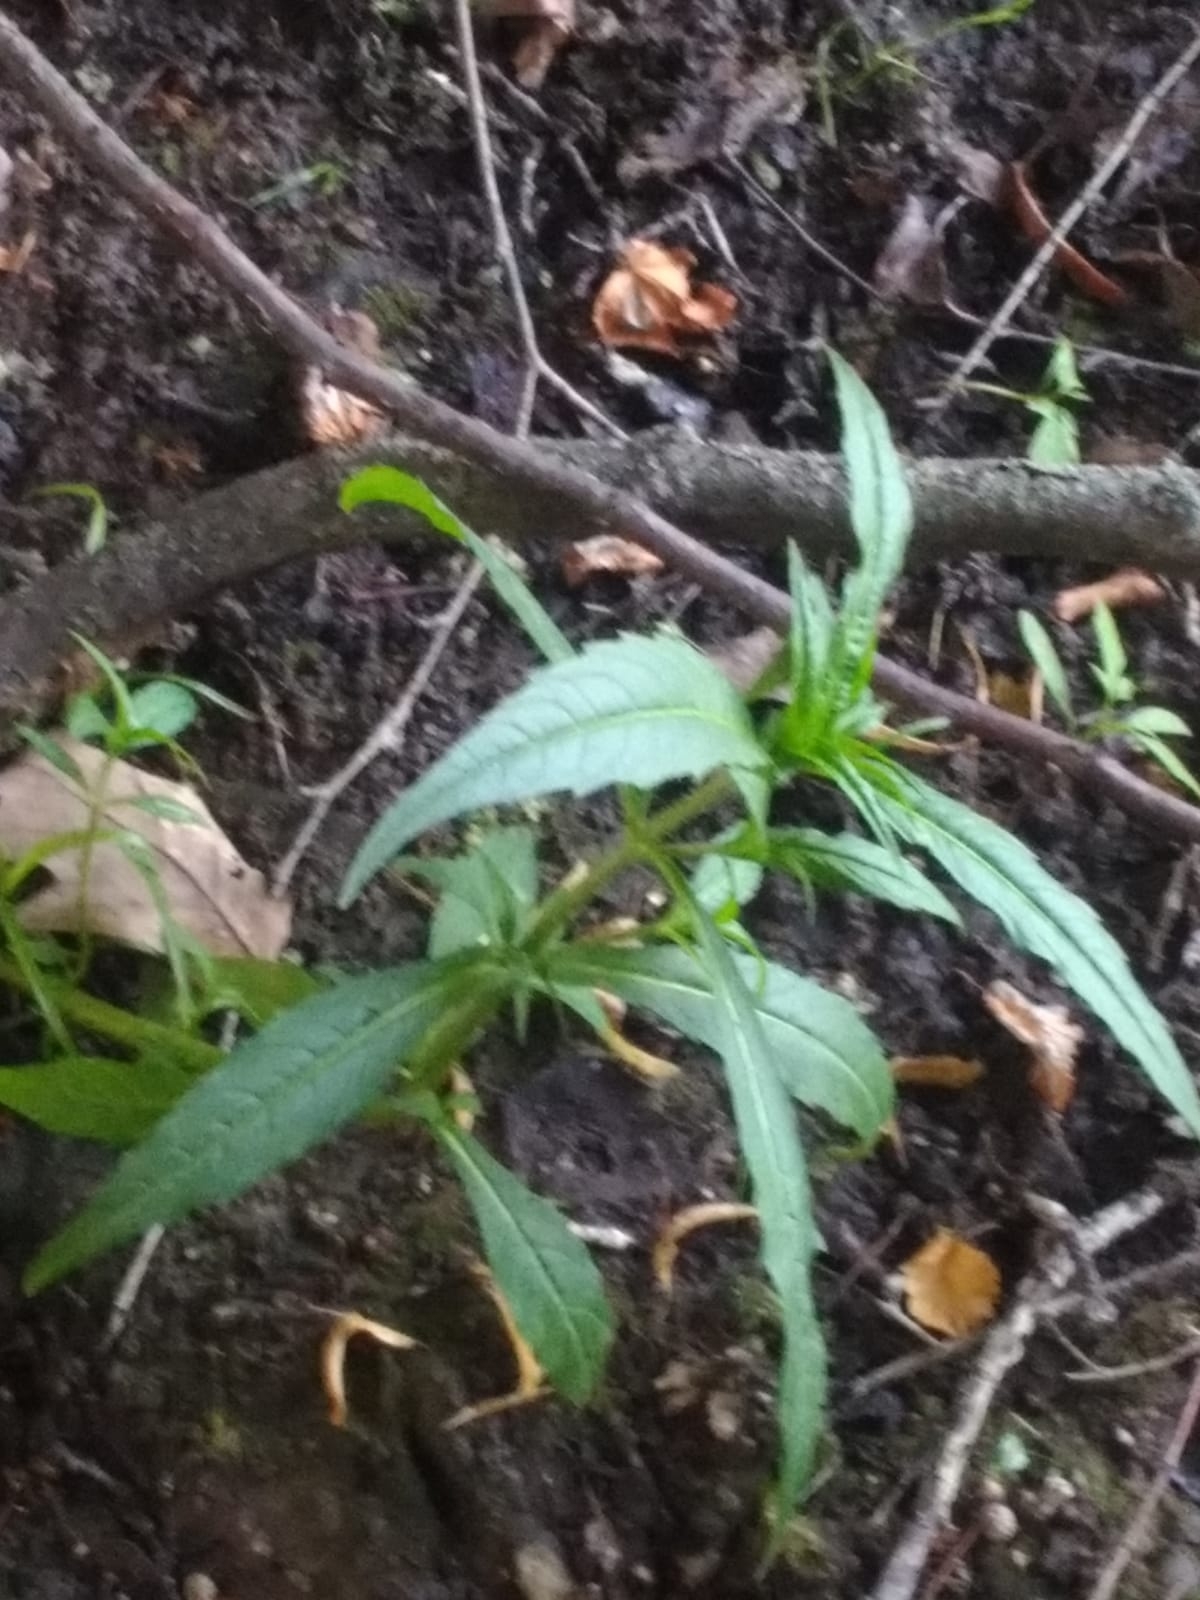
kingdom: Plantae
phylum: Tracheophyta
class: Magnoliopsida
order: Asterales
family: Asteraceae
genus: Bidens
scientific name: Bidens cernua
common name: Nodding bur-marigold
